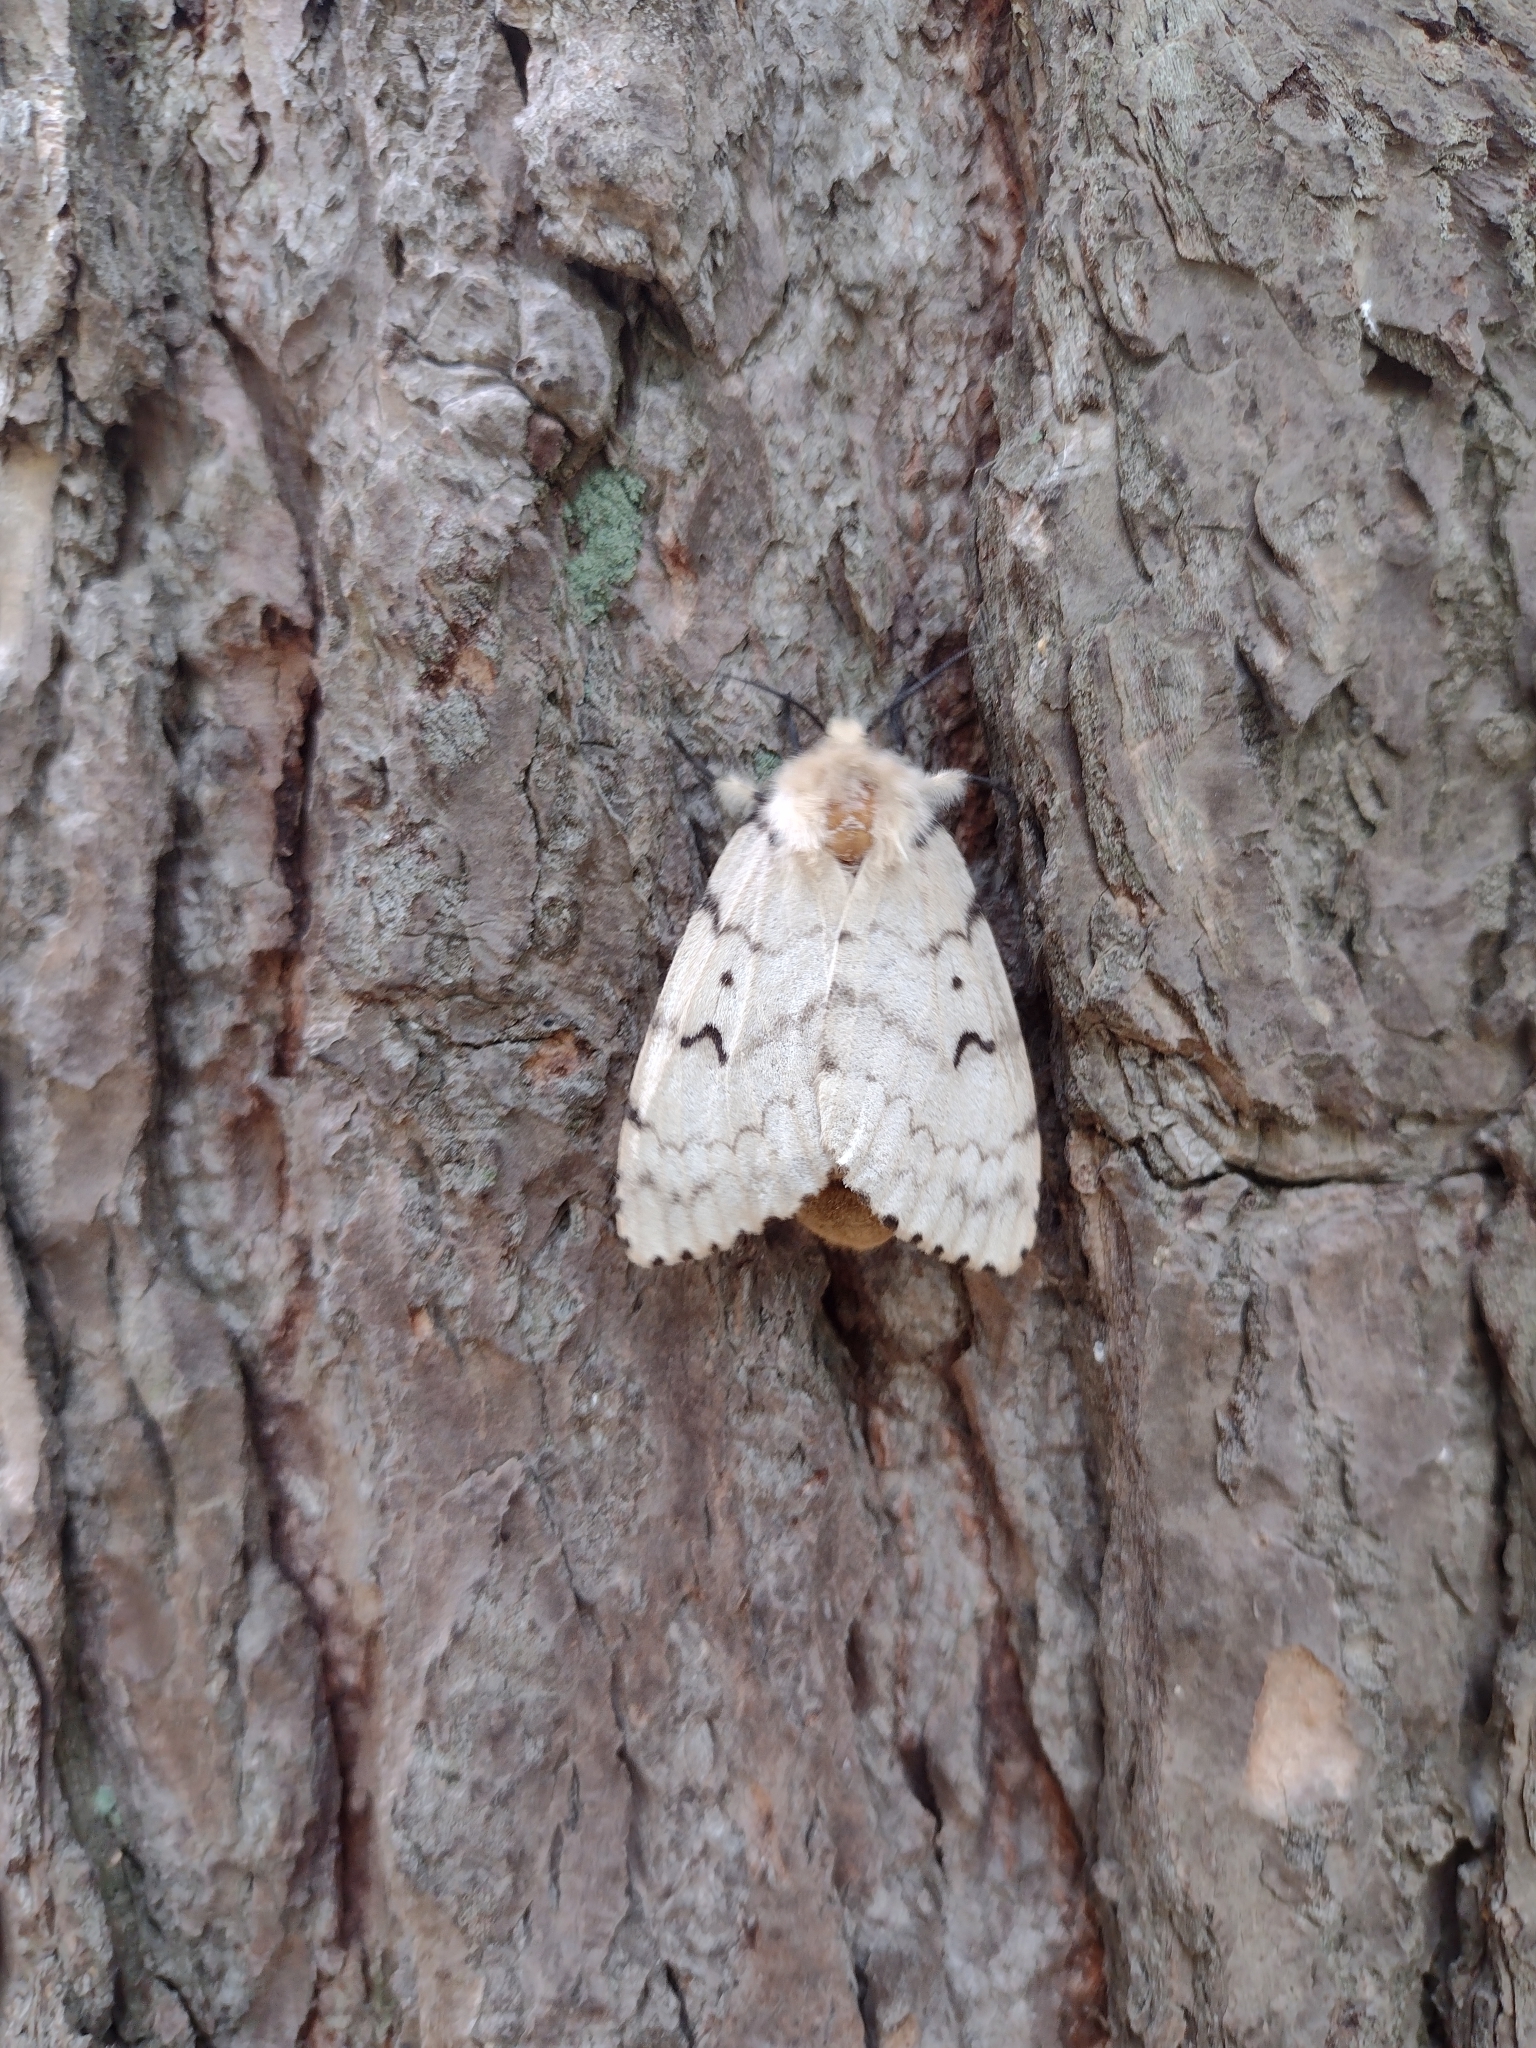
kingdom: Animalia
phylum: Arthropoda
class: Insecta
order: Lepidoptera
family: Erebidae
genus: Lymantria
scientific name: Lymantria dispar
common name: Gypsy moth
